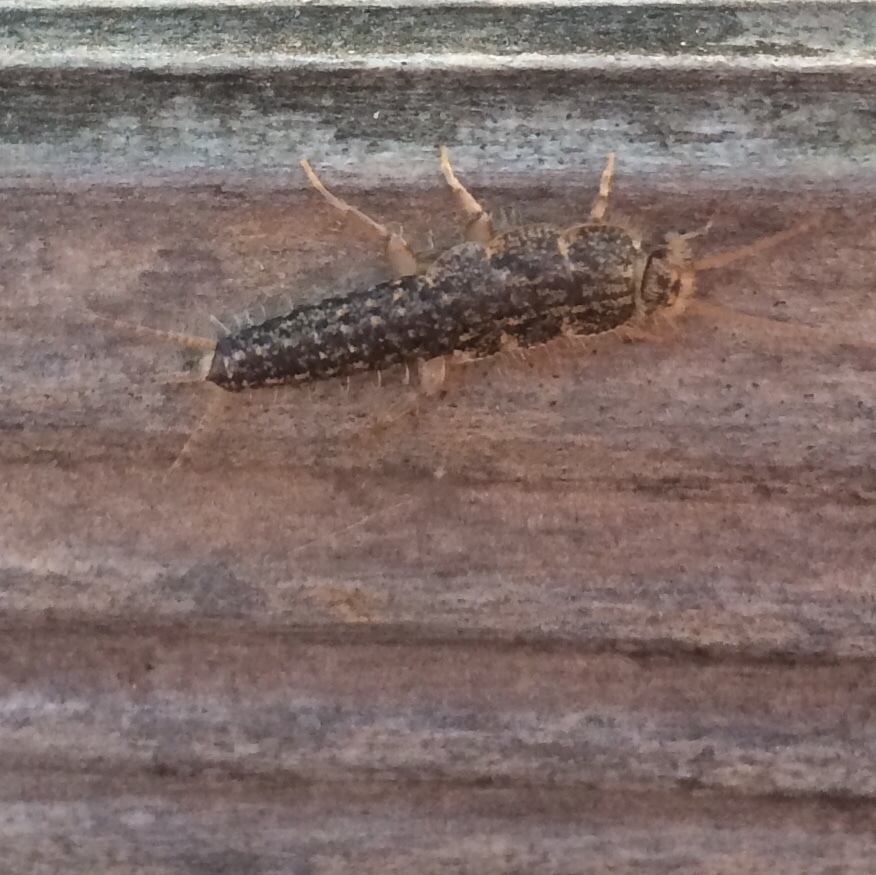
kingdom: Animalia
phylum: Arthropoda
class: Insecta
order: Zygentoma
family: Lepismatidae
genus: Ctenolepisma
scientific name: Ctenolepisma lineata
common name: Four-lined silverfish
